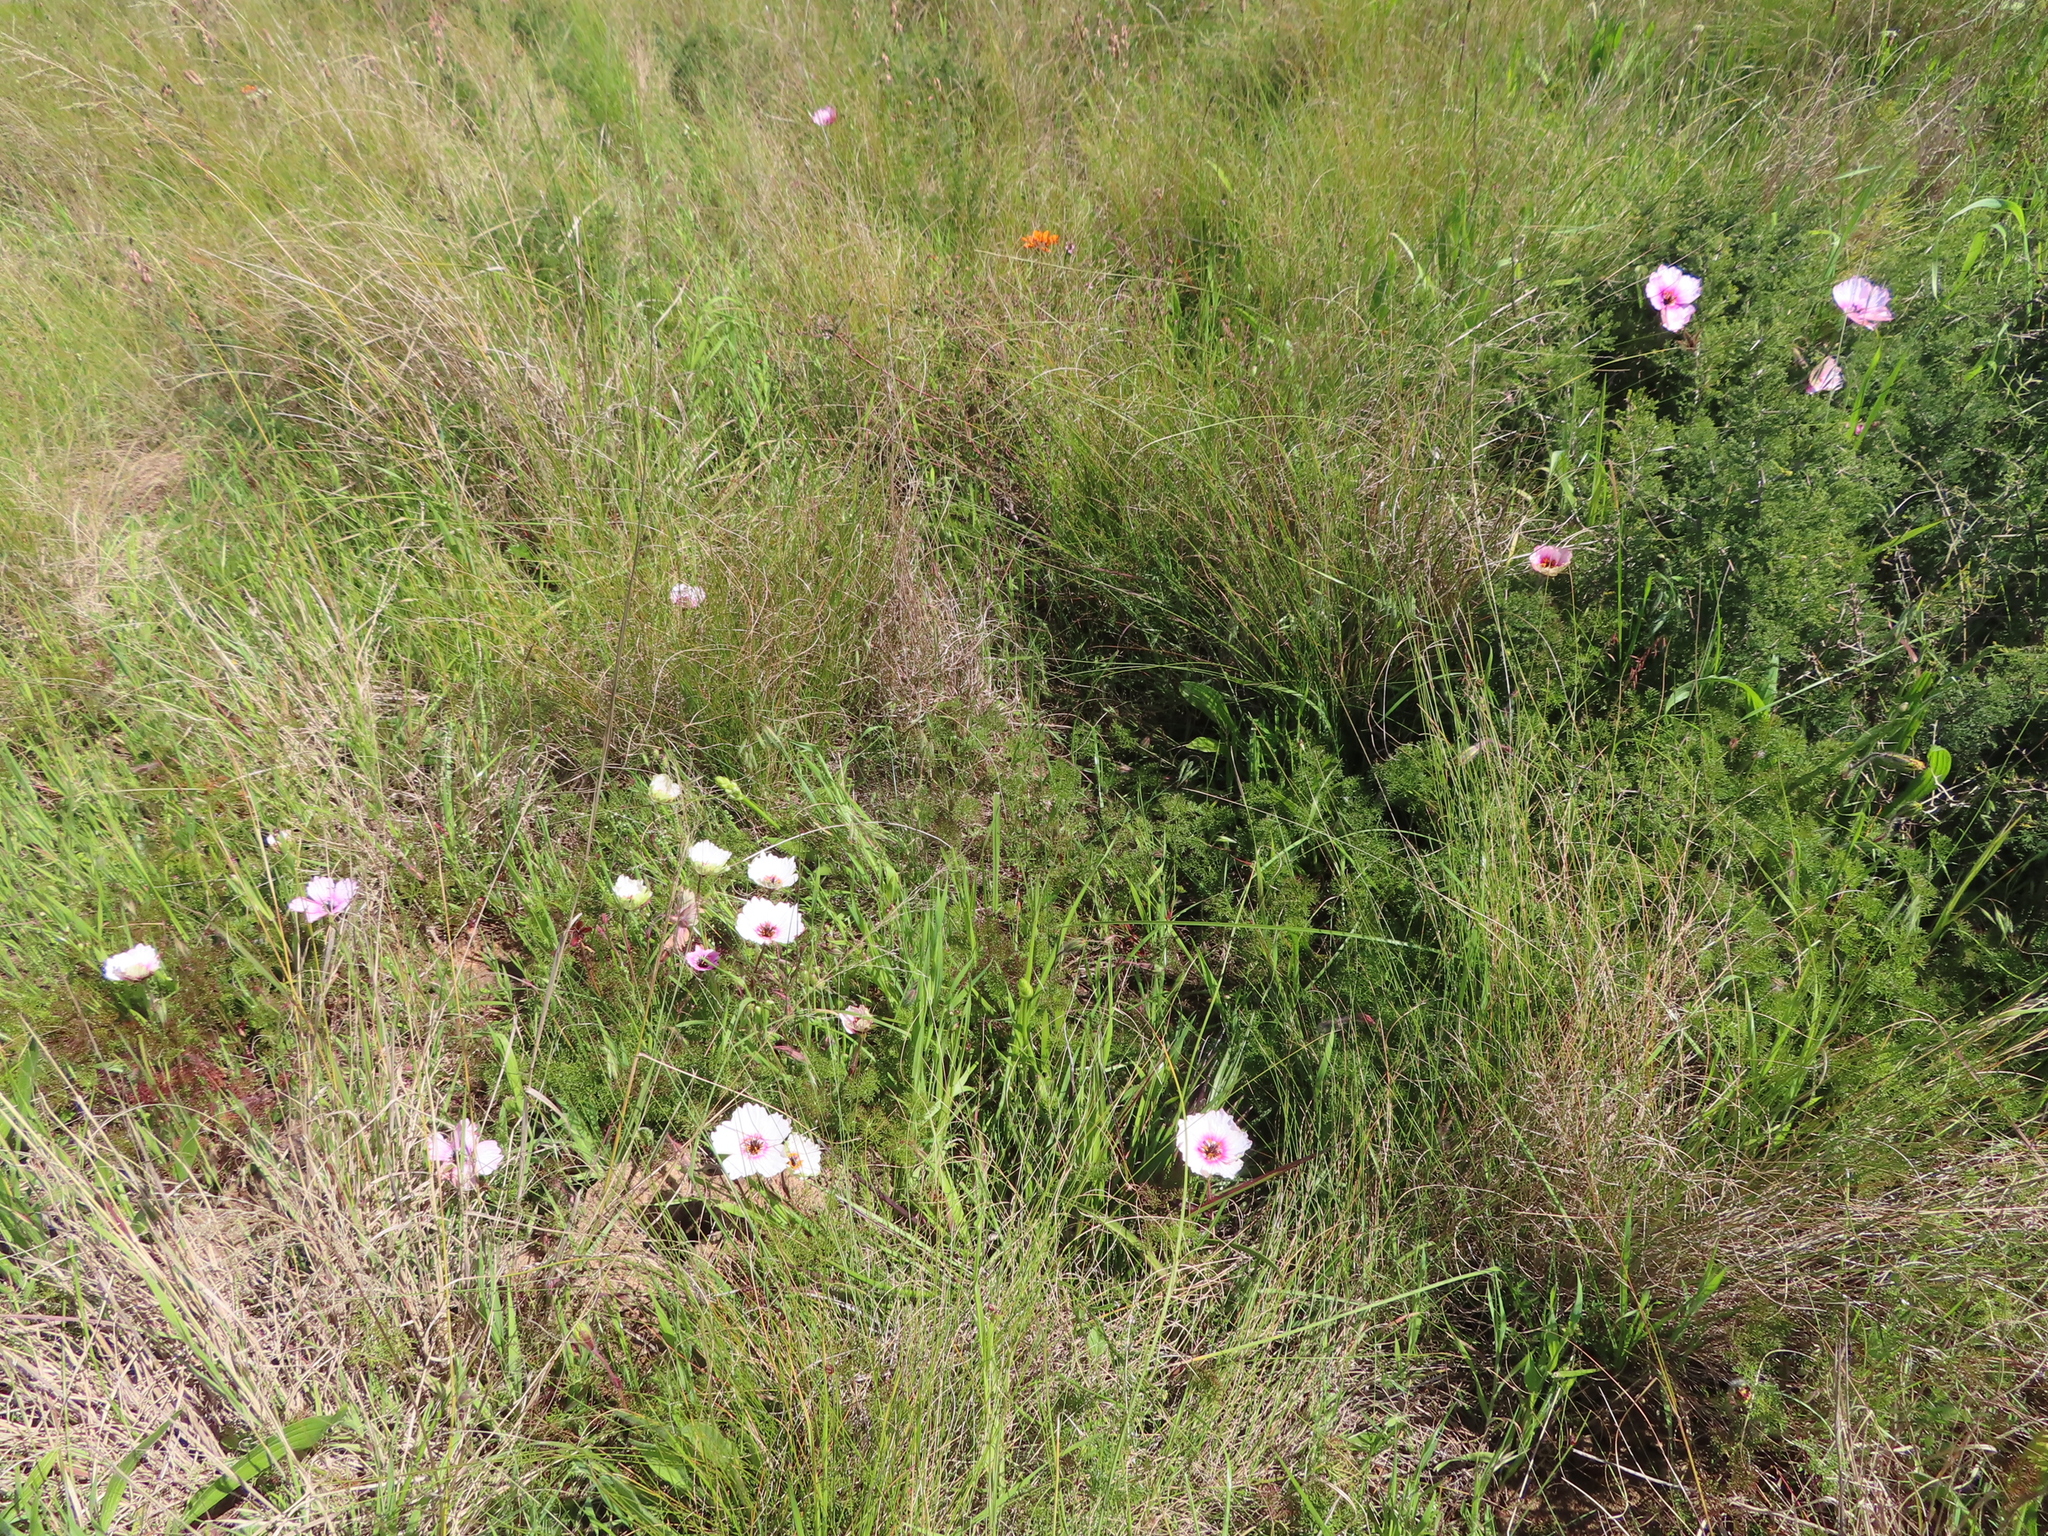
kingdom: Plantae
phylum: Tracheophyta
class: Magnoliopsida
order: Geraniales
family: Geraniaceae
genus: Monsonia
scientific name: Monsonia speciosa
